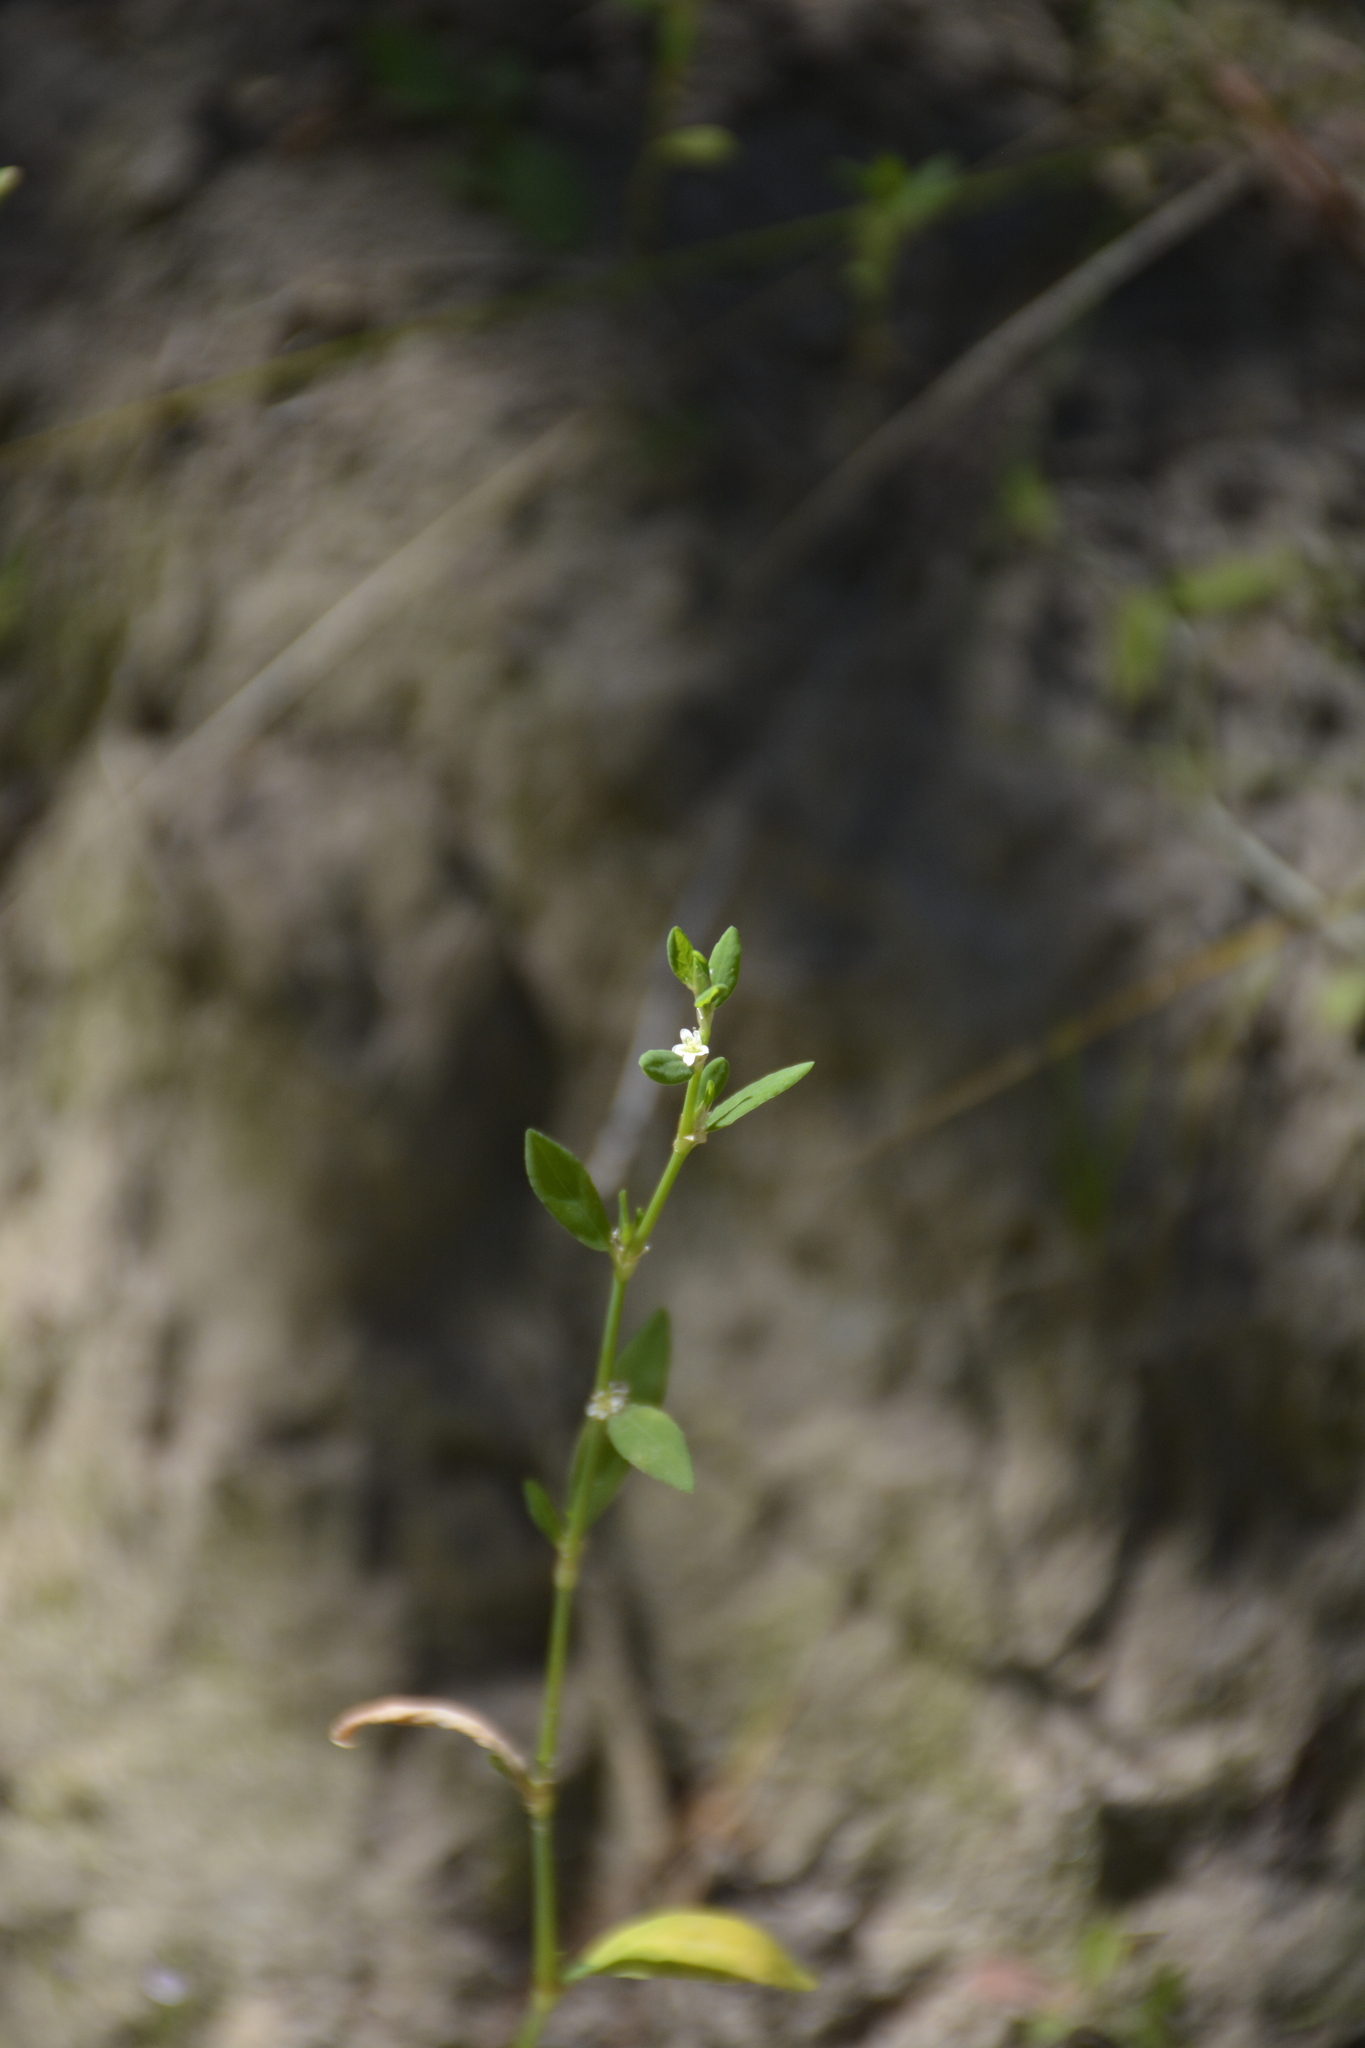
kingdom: Plantae
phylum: Tracheophyta
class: Magnoliopsida
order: Caryophyllales
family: Polygonaceae
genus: Polygonum
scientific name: Polygonum
